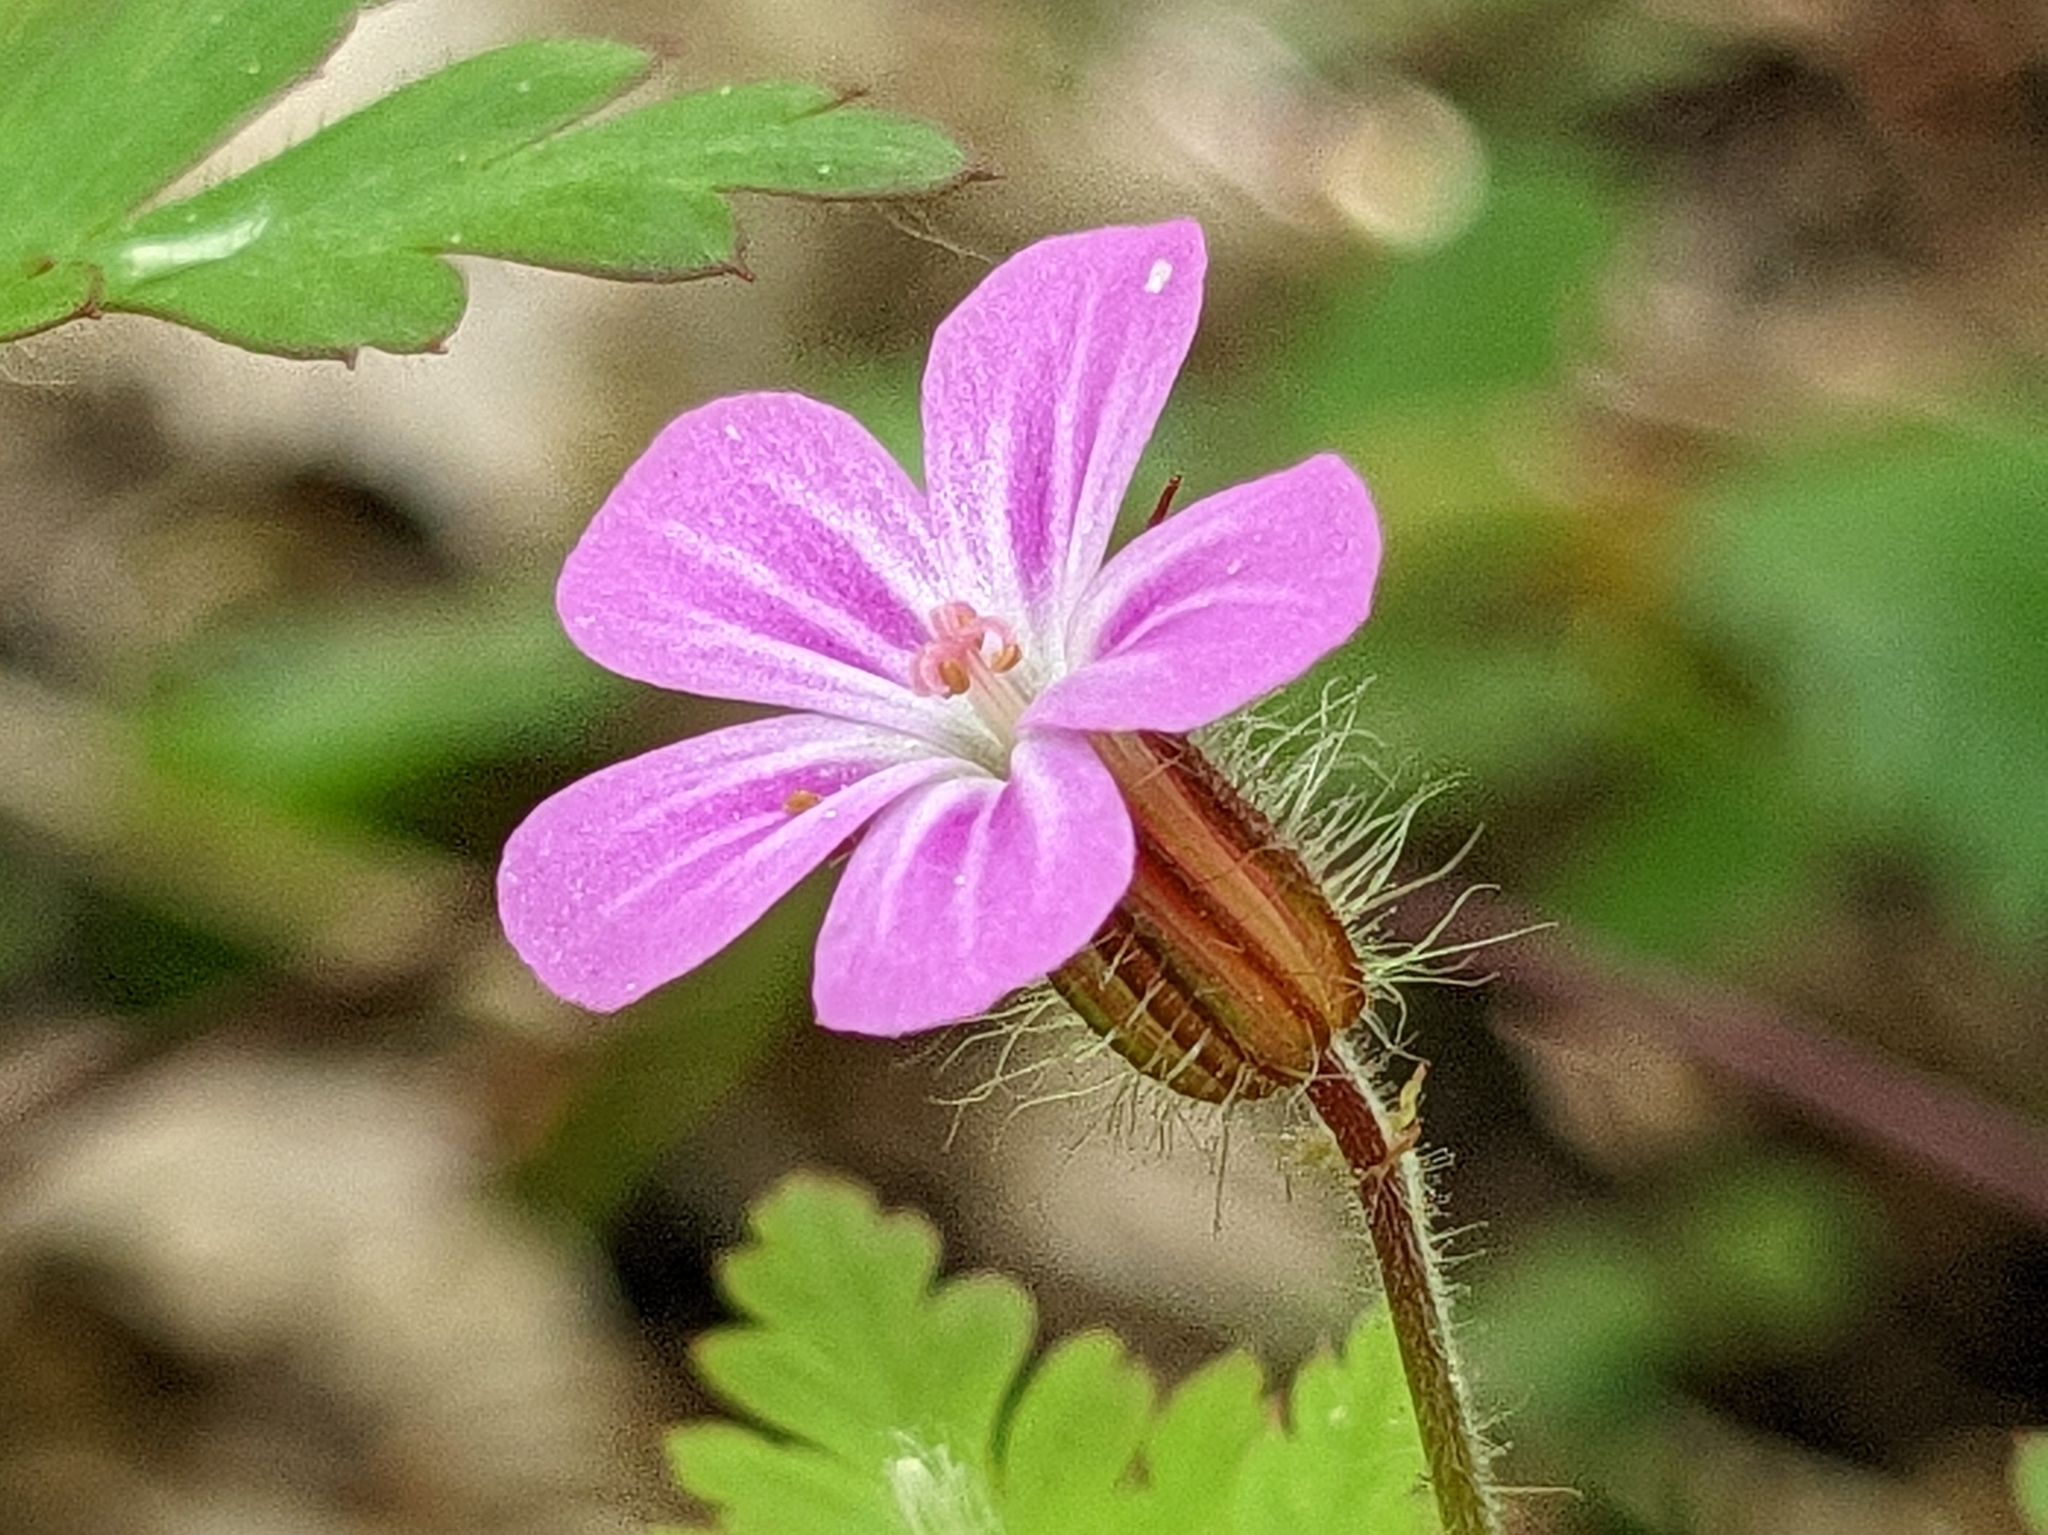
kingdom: Plantae
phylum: Tracheophyta
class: Magnoliopsida
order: Geraniales
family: Geraniaceae
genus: Geranium
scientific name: Geranium robertianum
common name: Herb-robert
